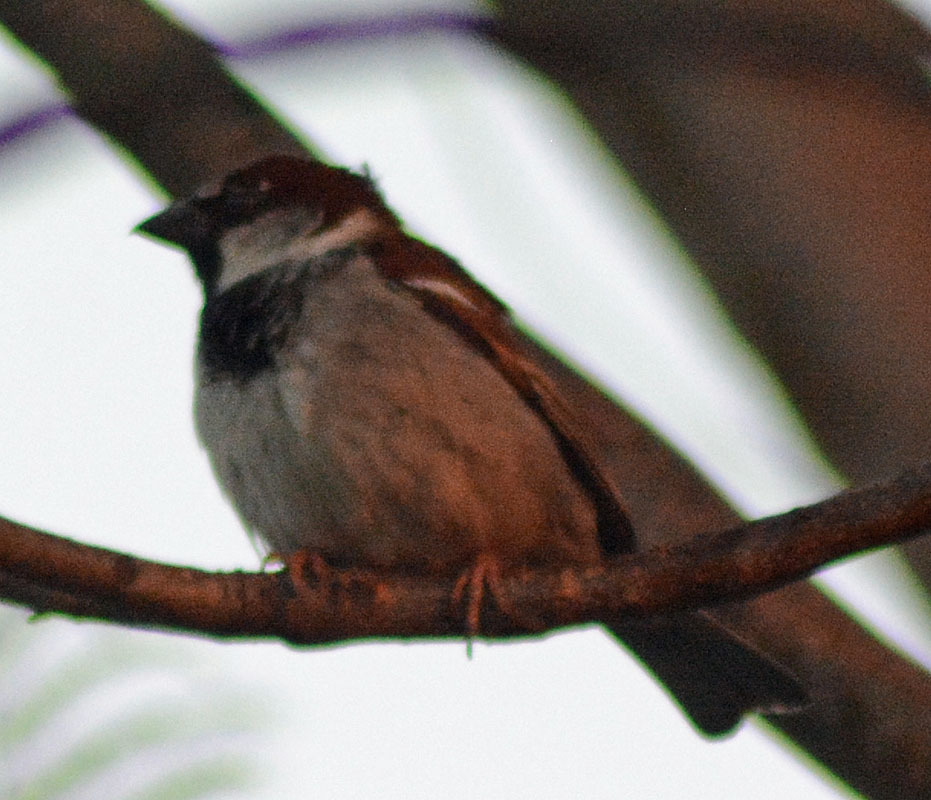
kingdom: Animalia
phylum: Chordata
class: Aves
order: Passeriformes
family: Passeridae
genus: Passer
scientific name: Passer domesticus
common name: House sparrow
